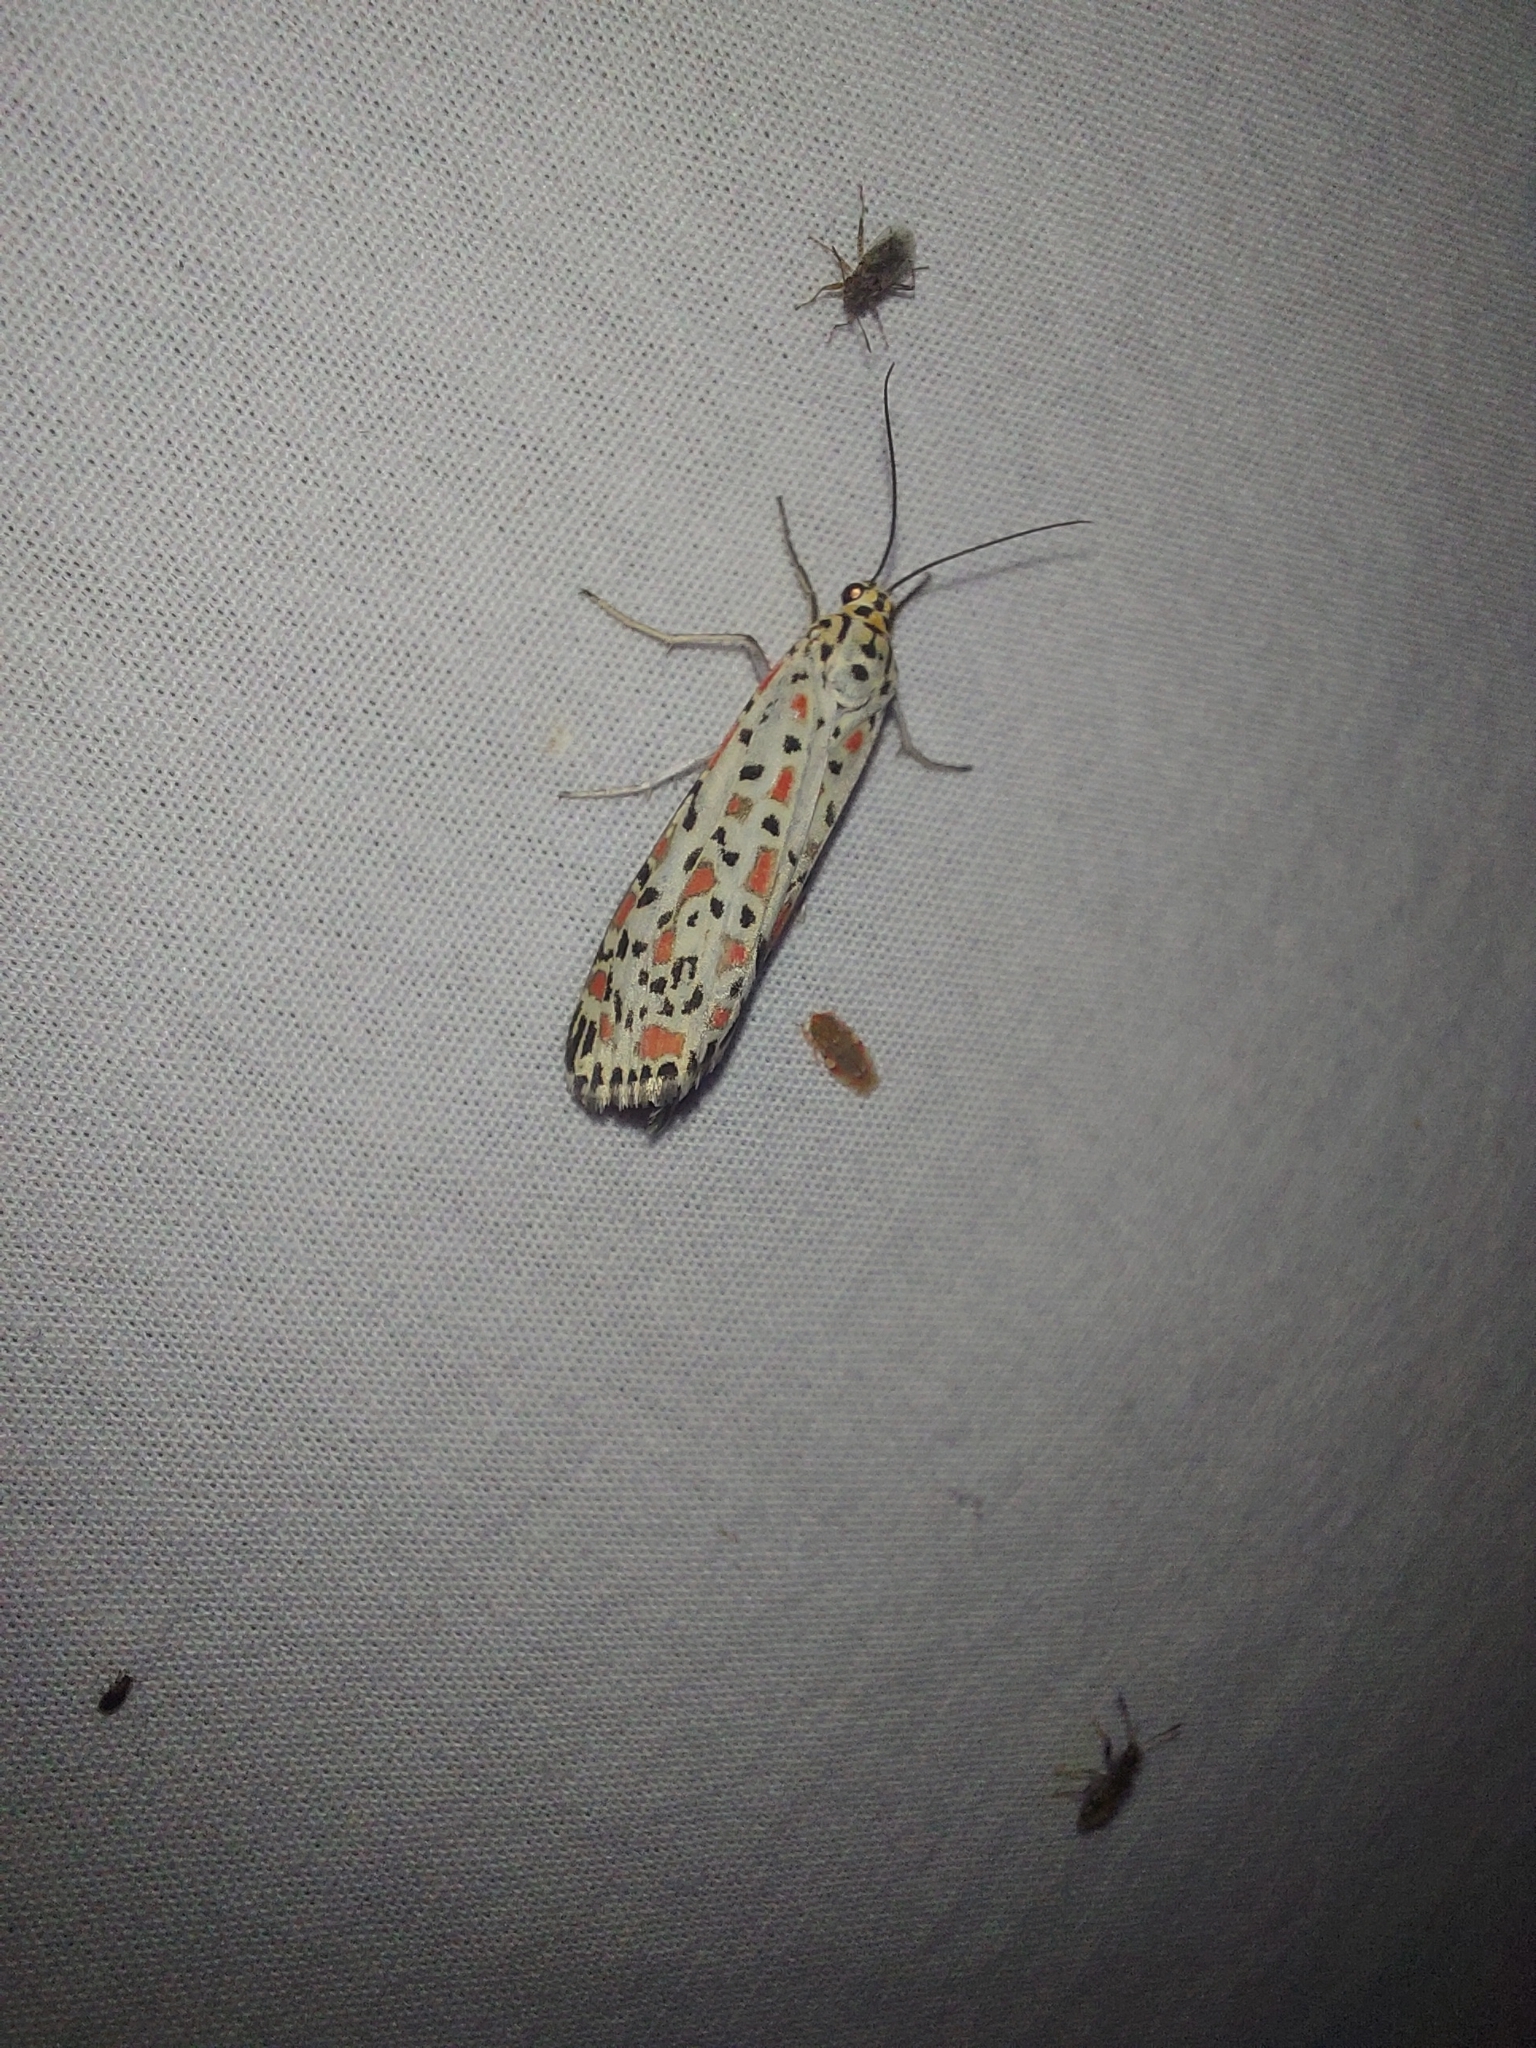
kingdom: Animalia
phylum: Arthropoda
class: Insecta
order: Lepidoptera
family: Erebidae
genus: Utetheisa
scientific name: Utetheisa pulchelloides
